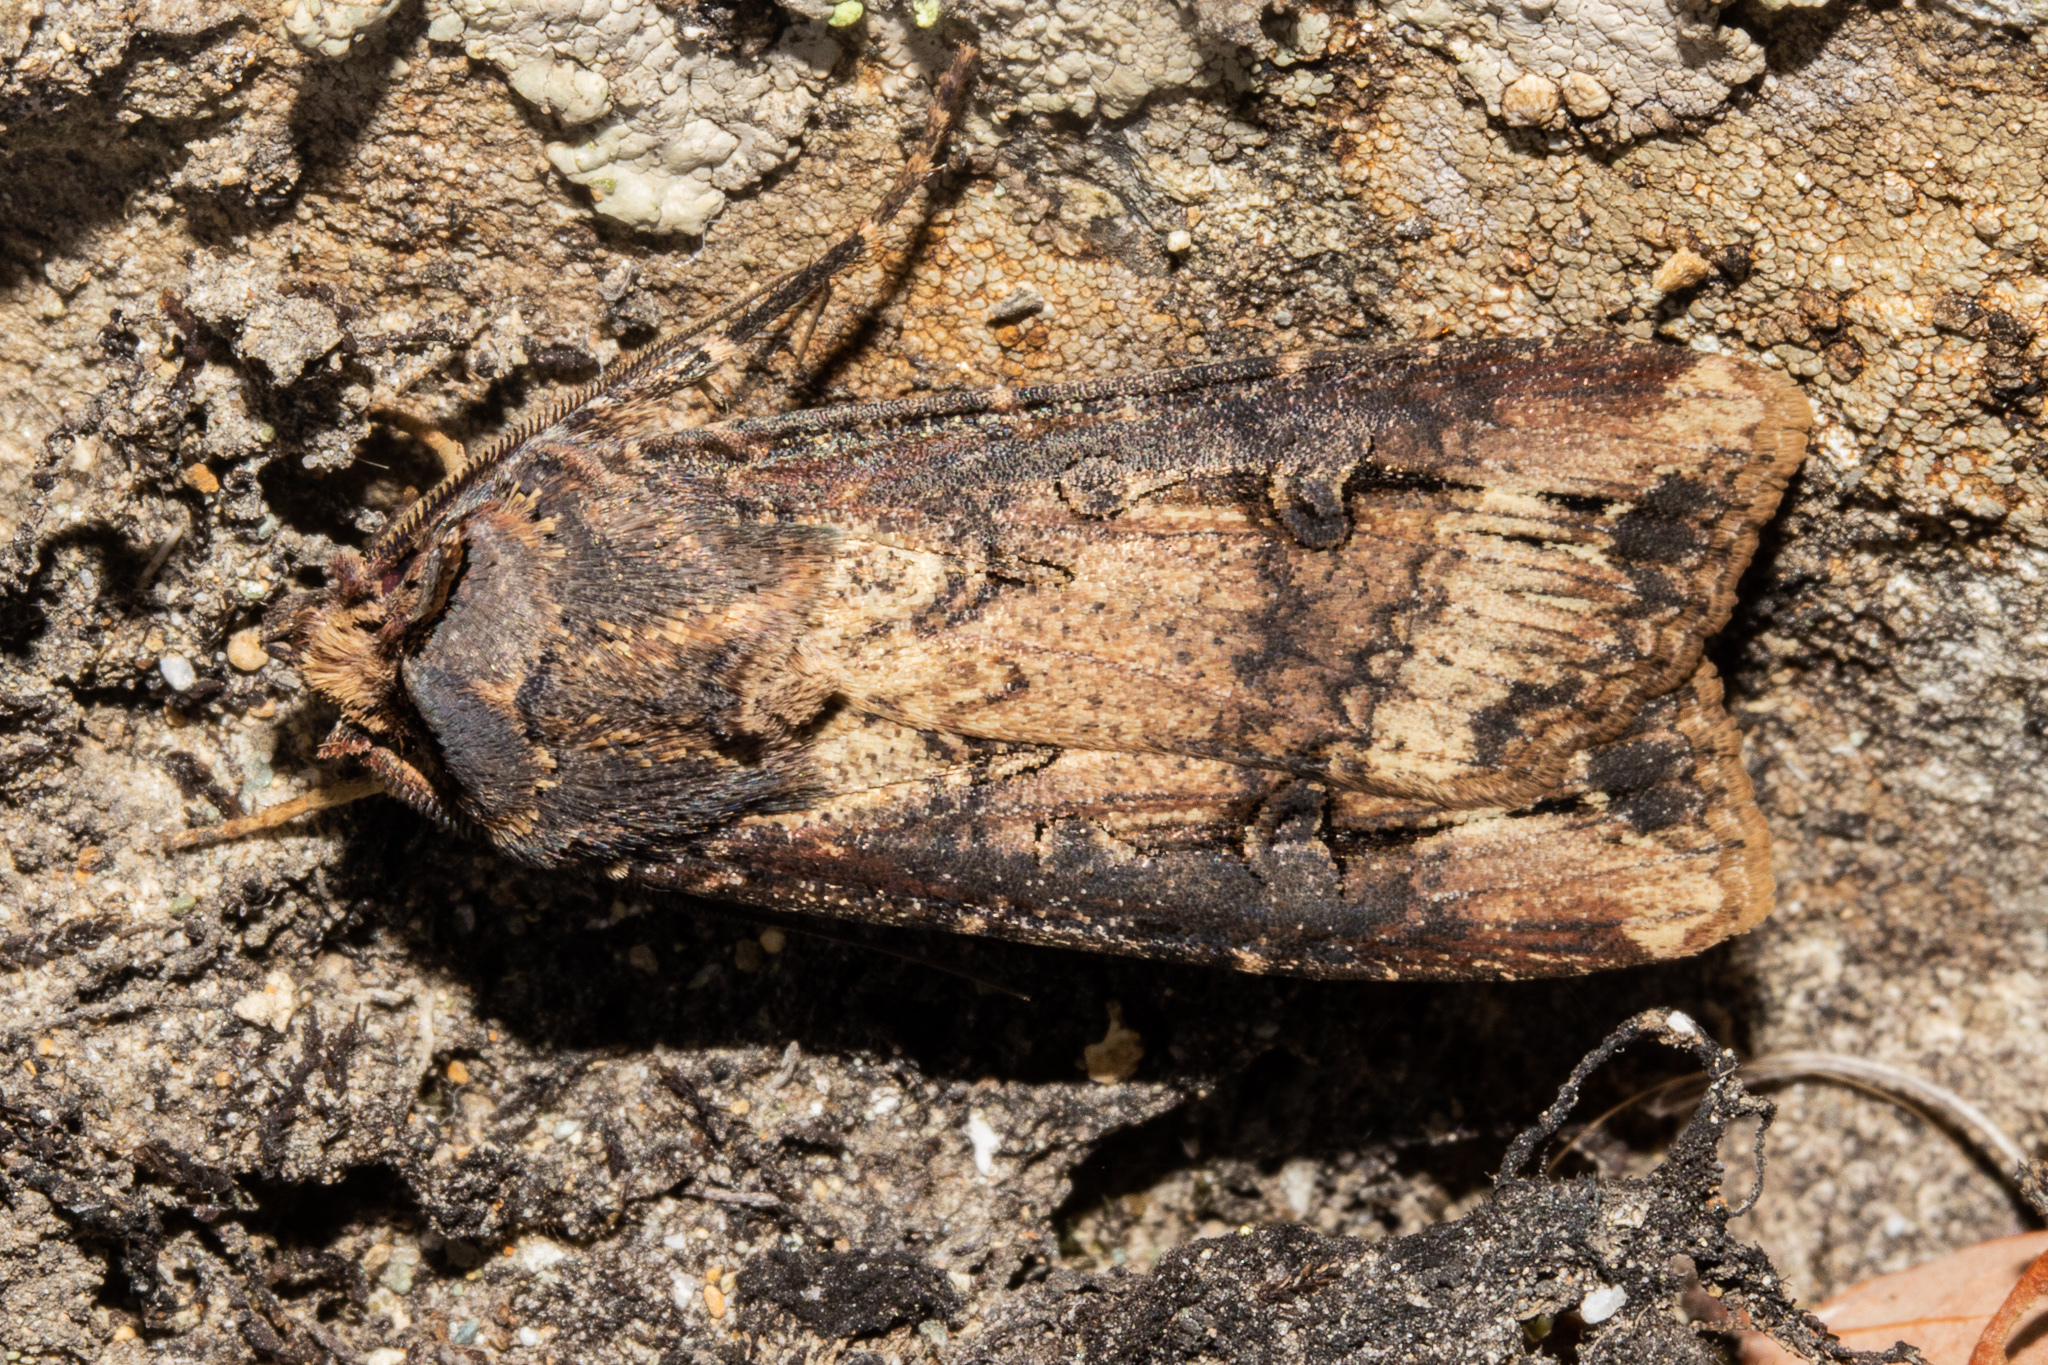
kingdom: Animalia
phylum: Arthropoda
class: Insecta
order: Lepidoptera
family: Noctuidae
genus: Agrotis
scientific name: Agrotis ipsilon
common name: Dark sword-grass
